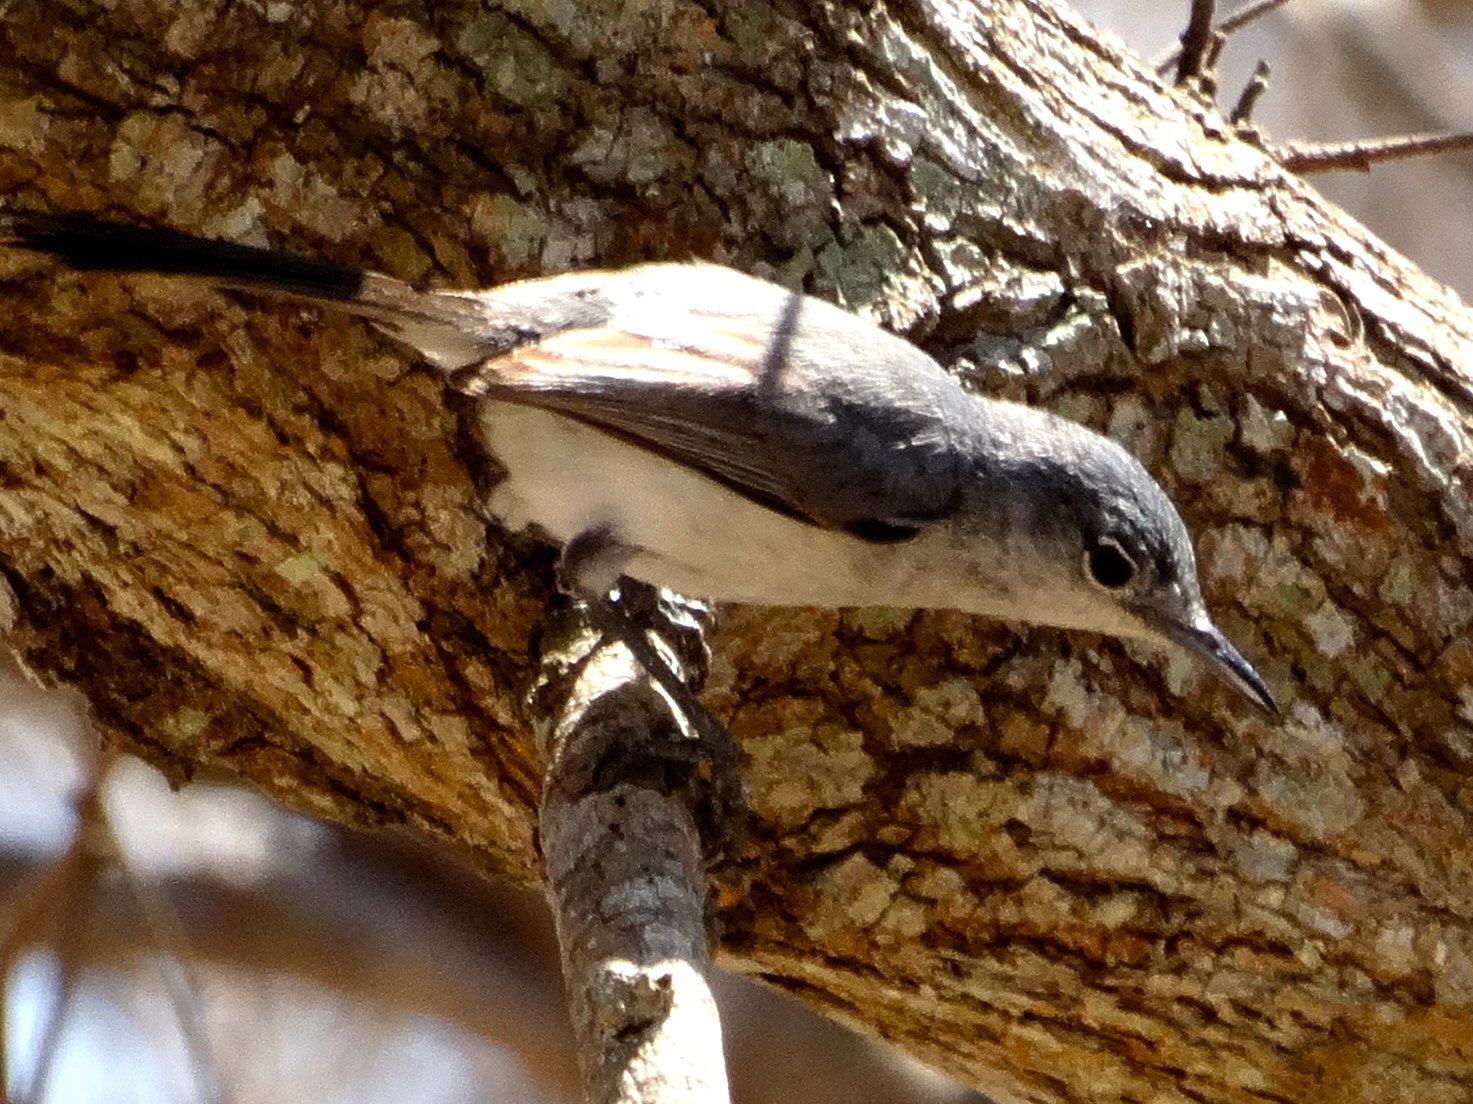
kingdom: Animalia
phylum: Chordata
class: Aves
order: Passeriformes
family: Polioptilidae
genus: Polioptila
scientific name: Polioptila caerulea
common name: Blue-gray gnatcatcher
